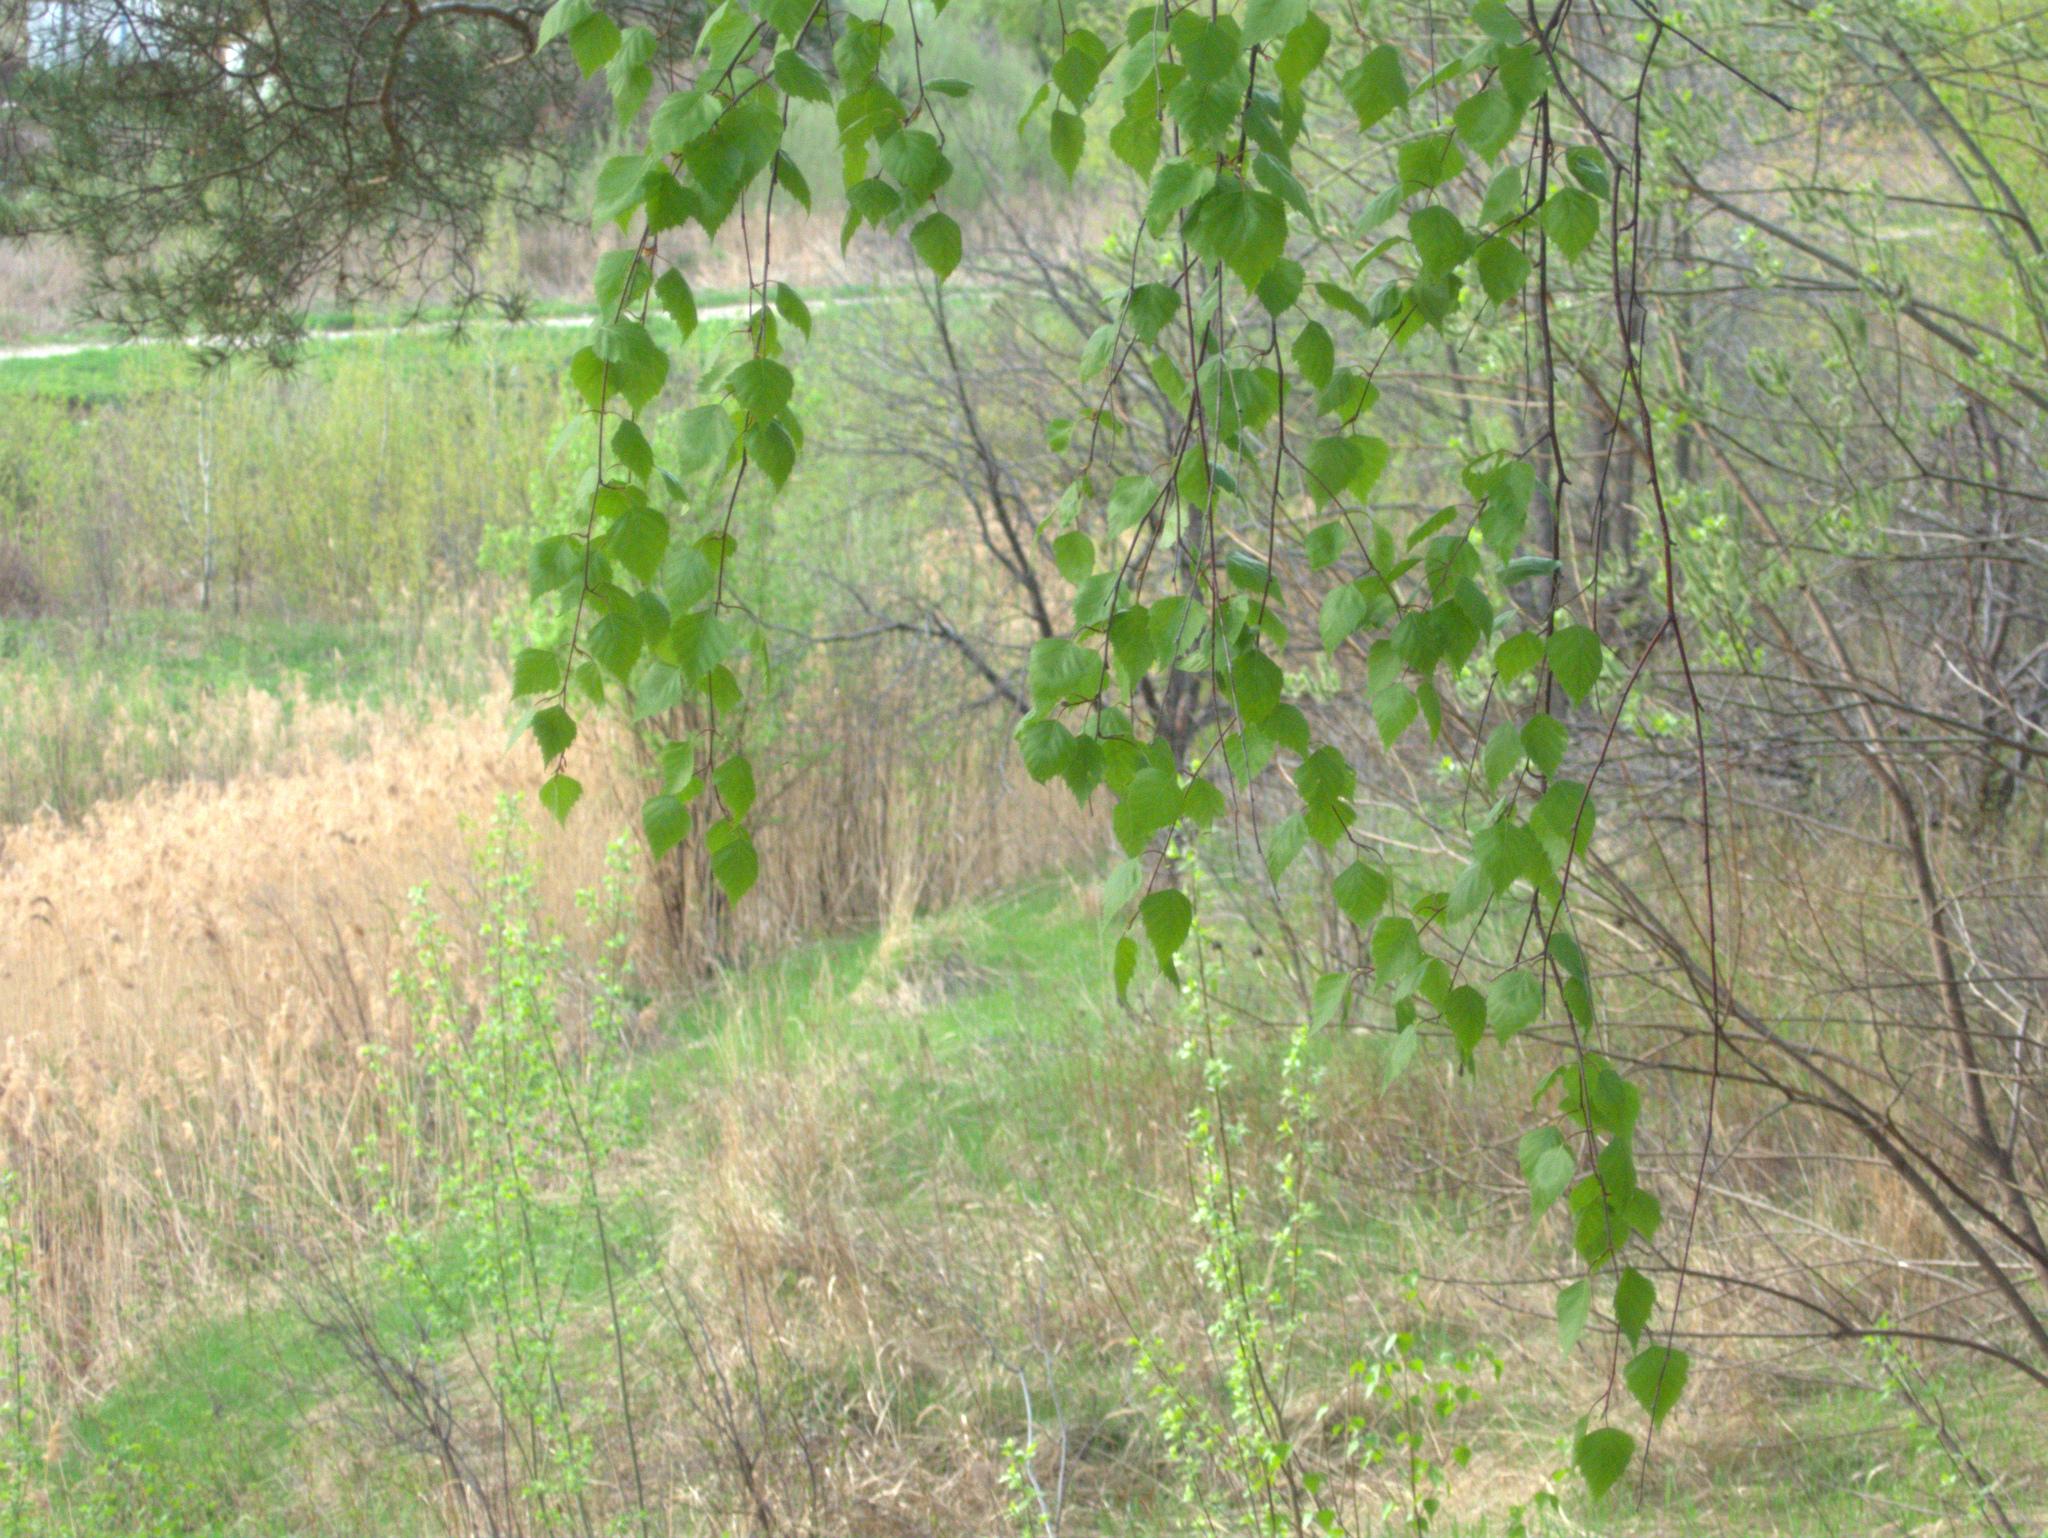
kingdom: Plantae
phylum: Tracheophyta
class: Magnoliopsida
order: Fagales
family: Betulaceae
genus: Betula
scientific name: Betula pendula
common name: Silver birch
